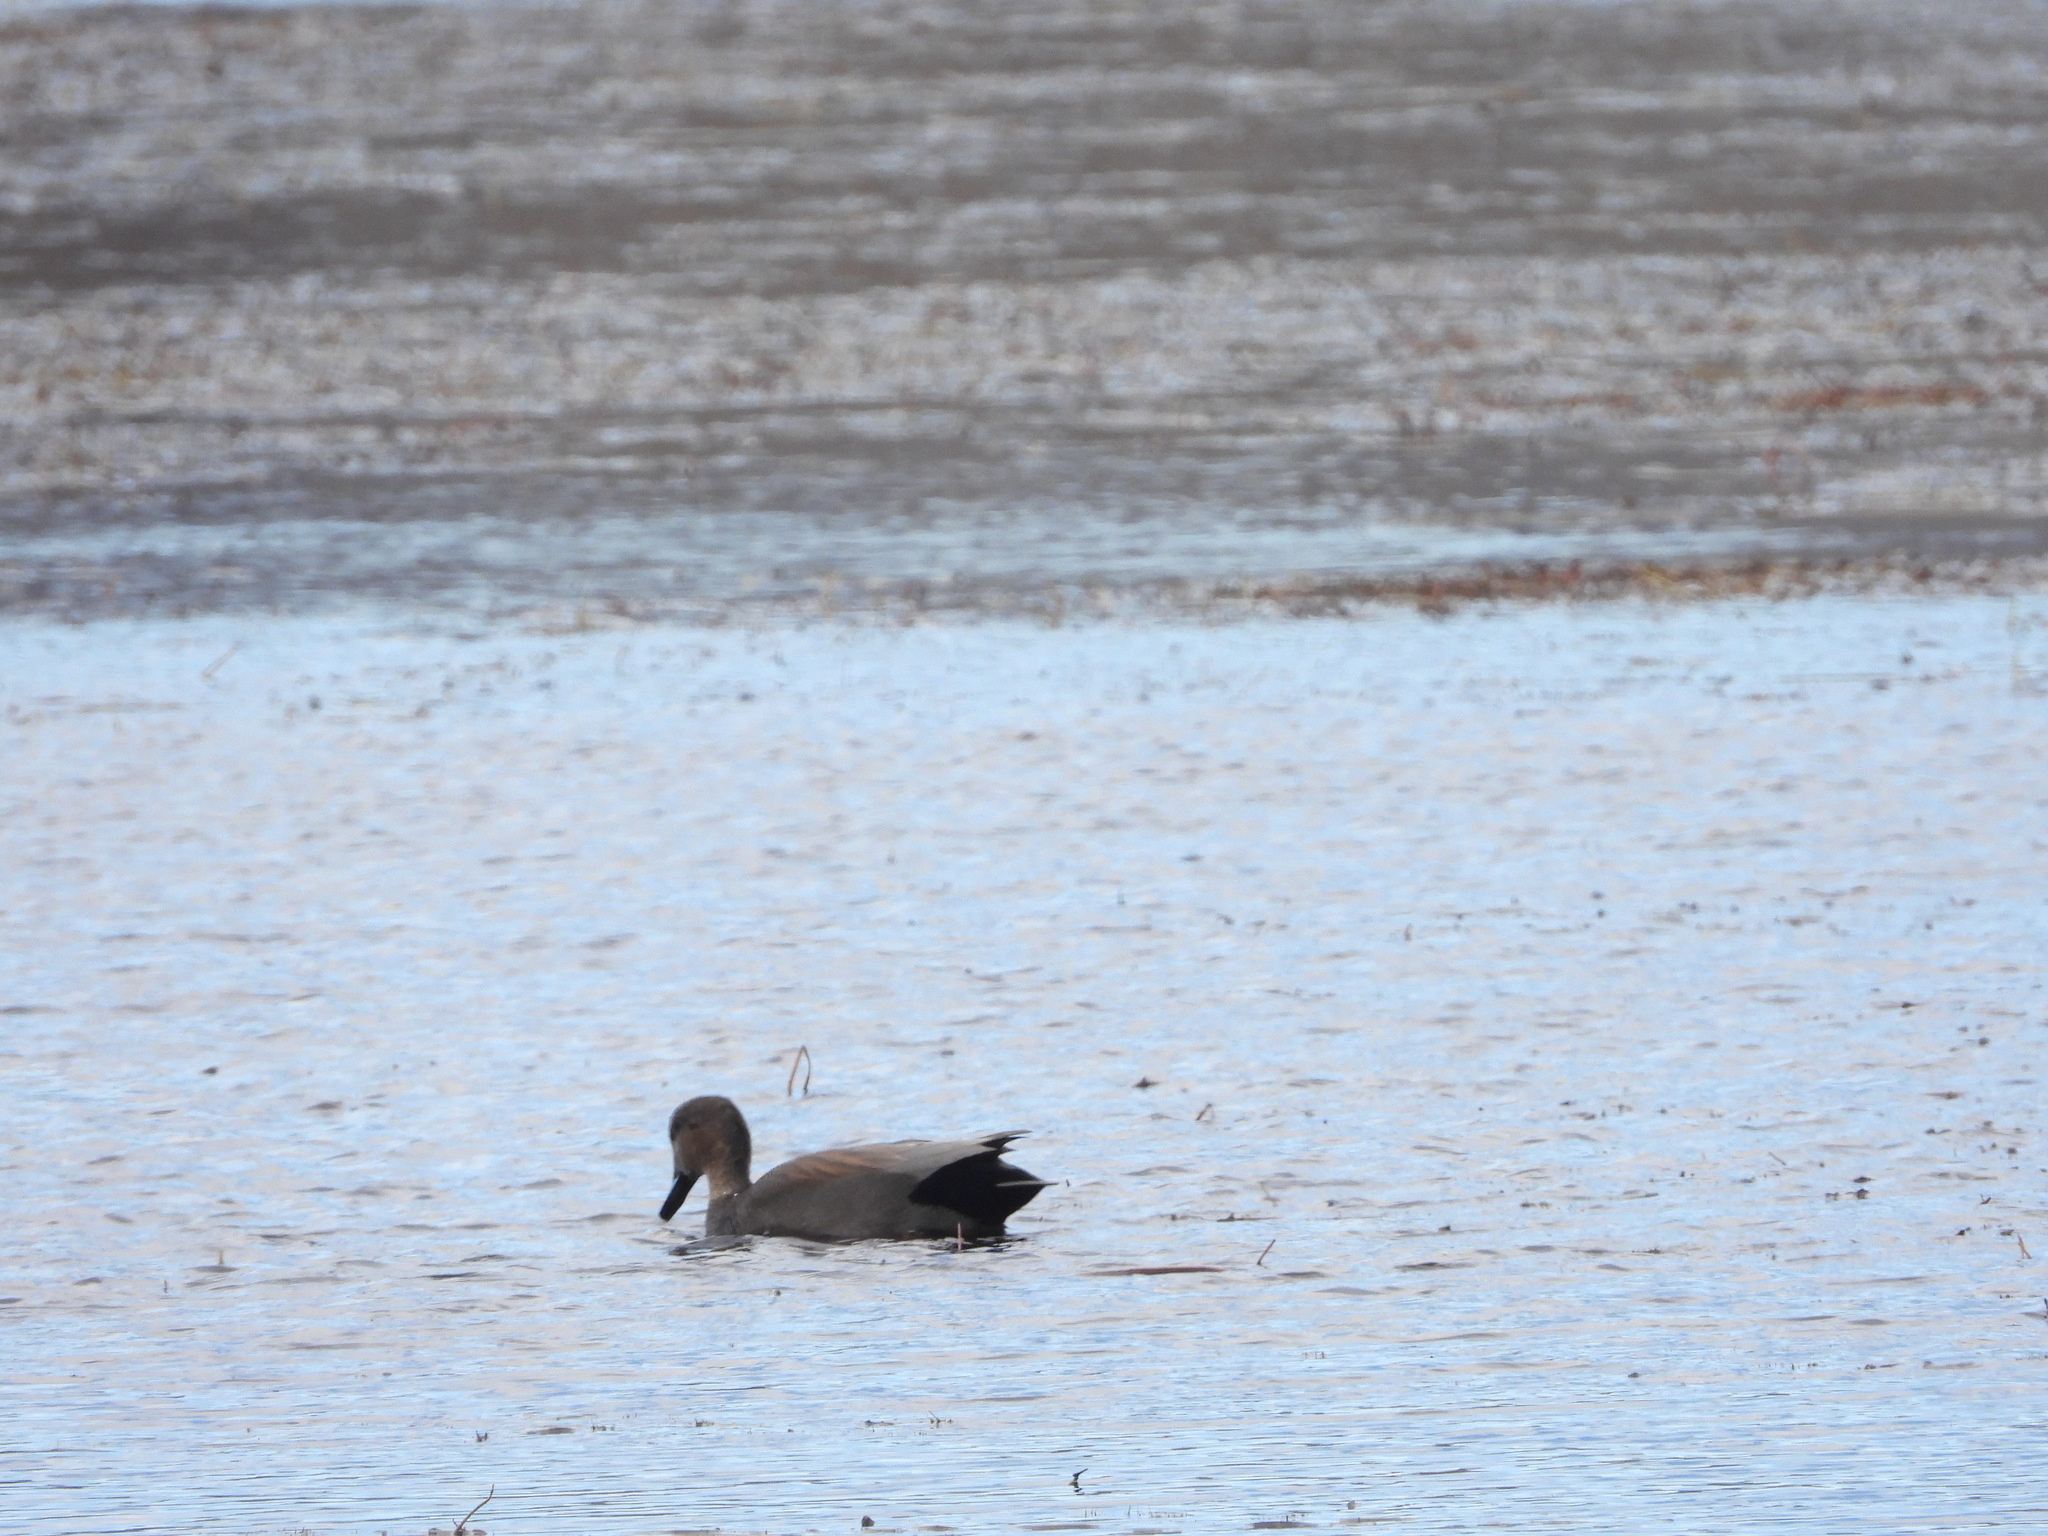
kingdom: Animalia
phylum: Chordata
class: Aves
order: Anseriformes
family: Anatidae
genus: Mareca
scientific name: Mareca strepera
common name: Gadwall
